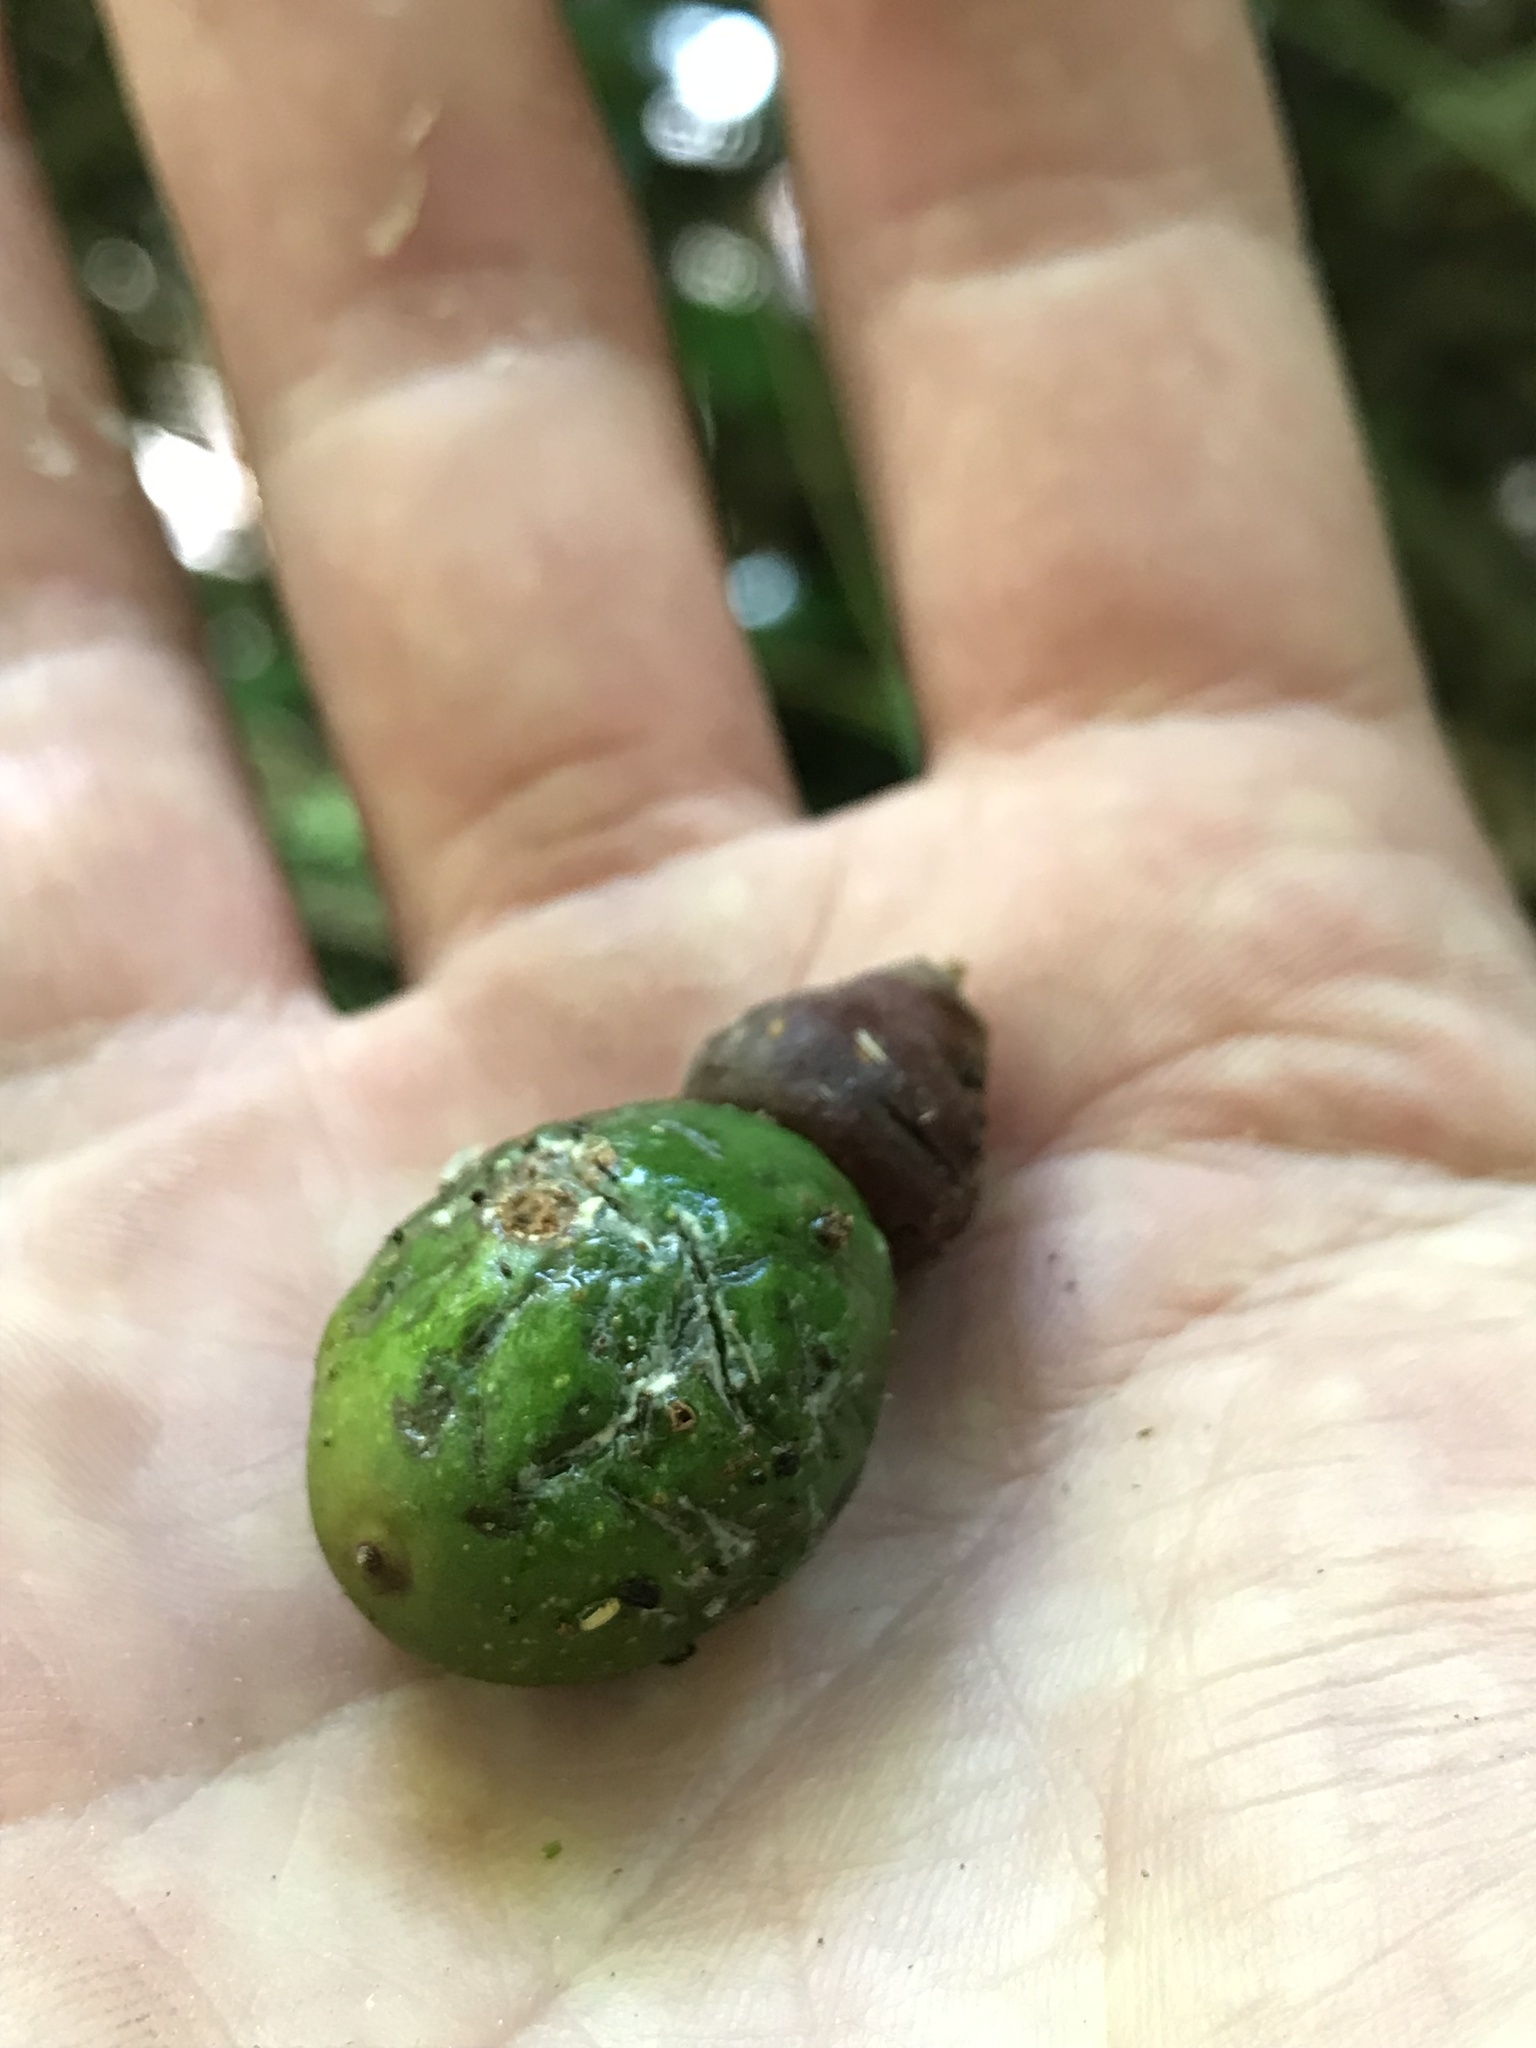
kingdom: Plantae
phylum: Tracheophyta
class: Magnoliopsida
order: Laurales
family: Lauraceae
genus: Ocotea
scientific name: Ocotea pedicellata
